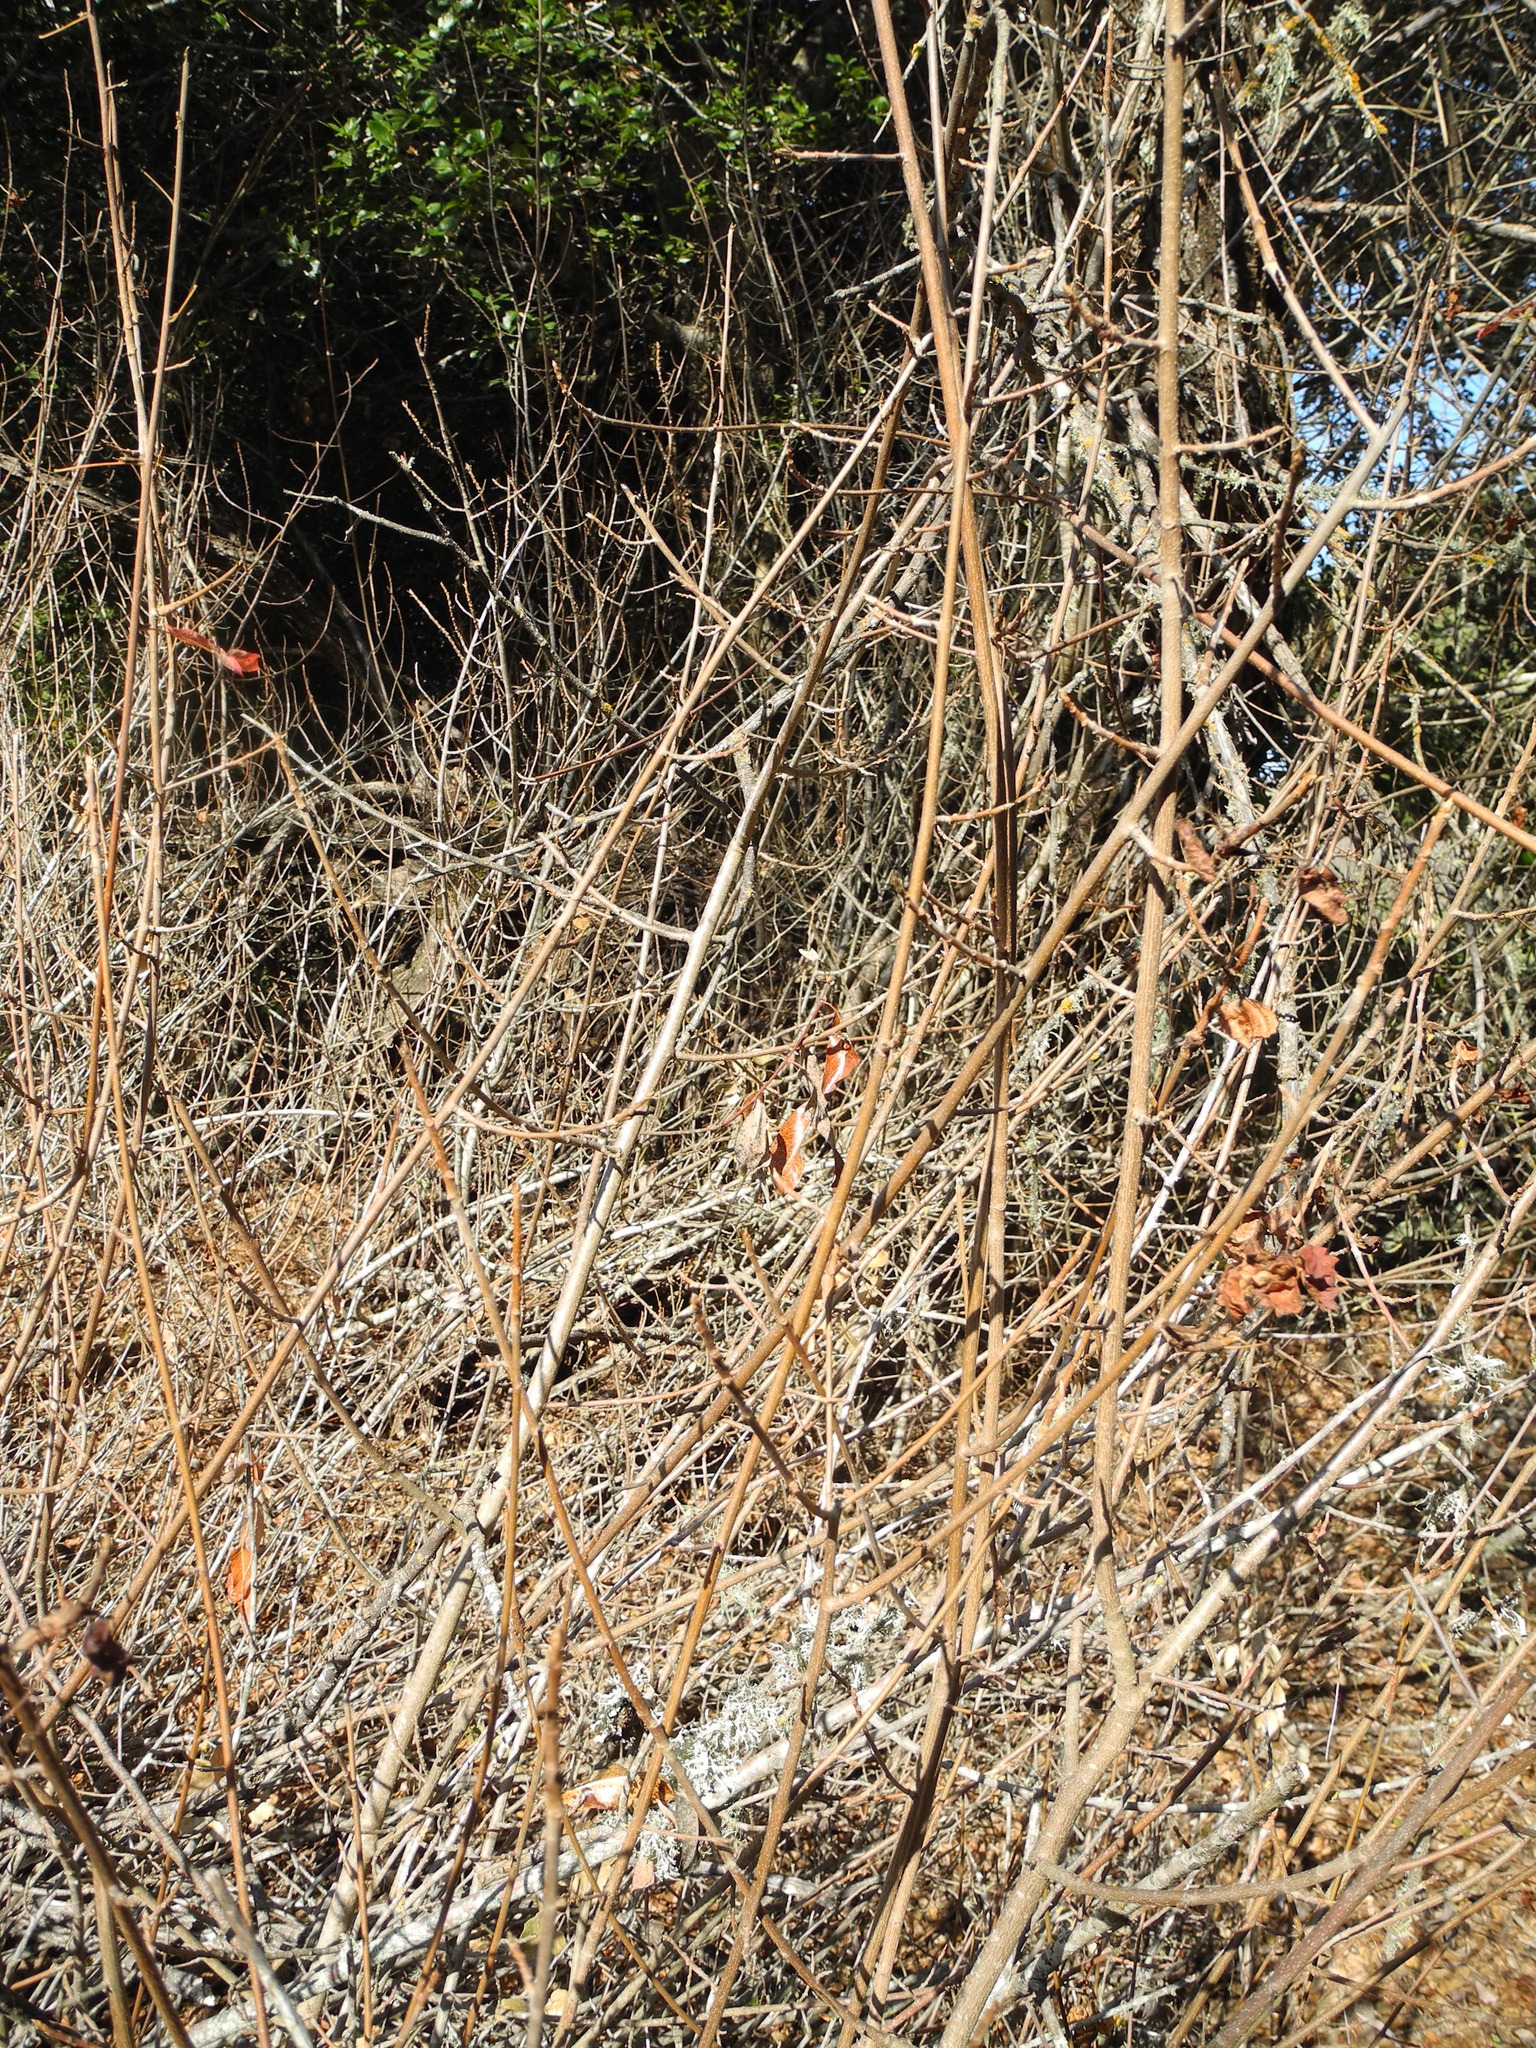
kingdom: Plantae
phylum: Tracheophyta
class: Magnoliopsida
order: Sapindales
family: Anacardiaceae
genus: Toxicodendron
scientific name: Toxicodendron diversilobum
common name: Pacific poison-oak
